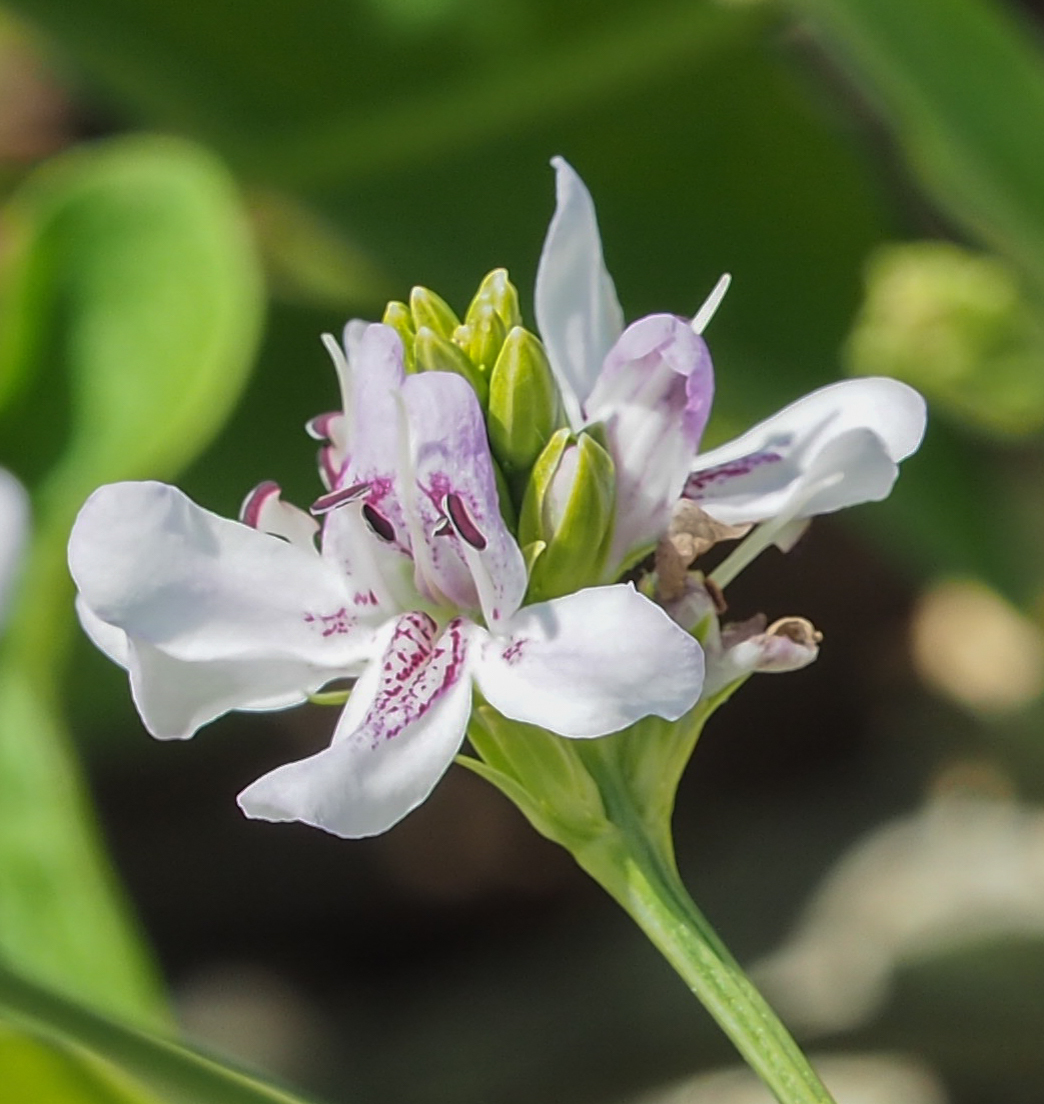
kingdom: Plantae
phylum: Tracheophyta
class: Magnoliopsida
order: Lamiales
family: Acanthaceae
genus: Dianthera
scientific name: Dianthera americana
